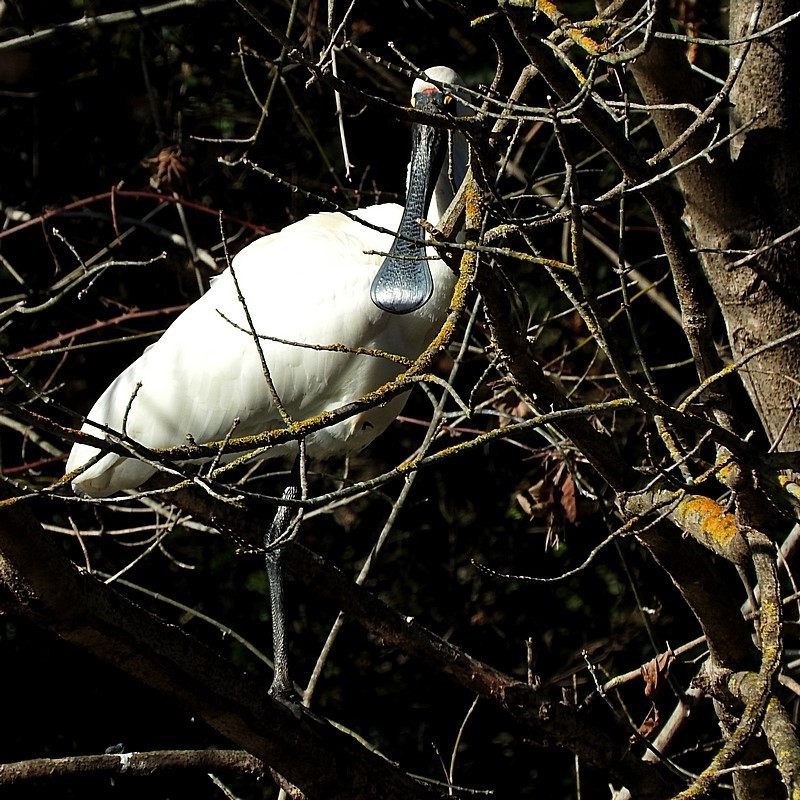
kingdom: Animalia
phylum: Chordata
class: Aves
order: Pelecaniformes
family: Threskiornithidae
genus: Platalea
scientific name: Platalea regia
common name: Royal spoonbill
